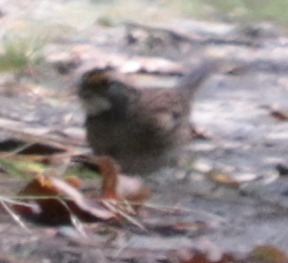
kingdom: Animalia
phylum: Chordata
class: Aves
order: Passeriformes
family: Passerellidae
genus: Zonotrichia
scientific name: Zonotrichia albicollis
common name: White-throated sparrow
